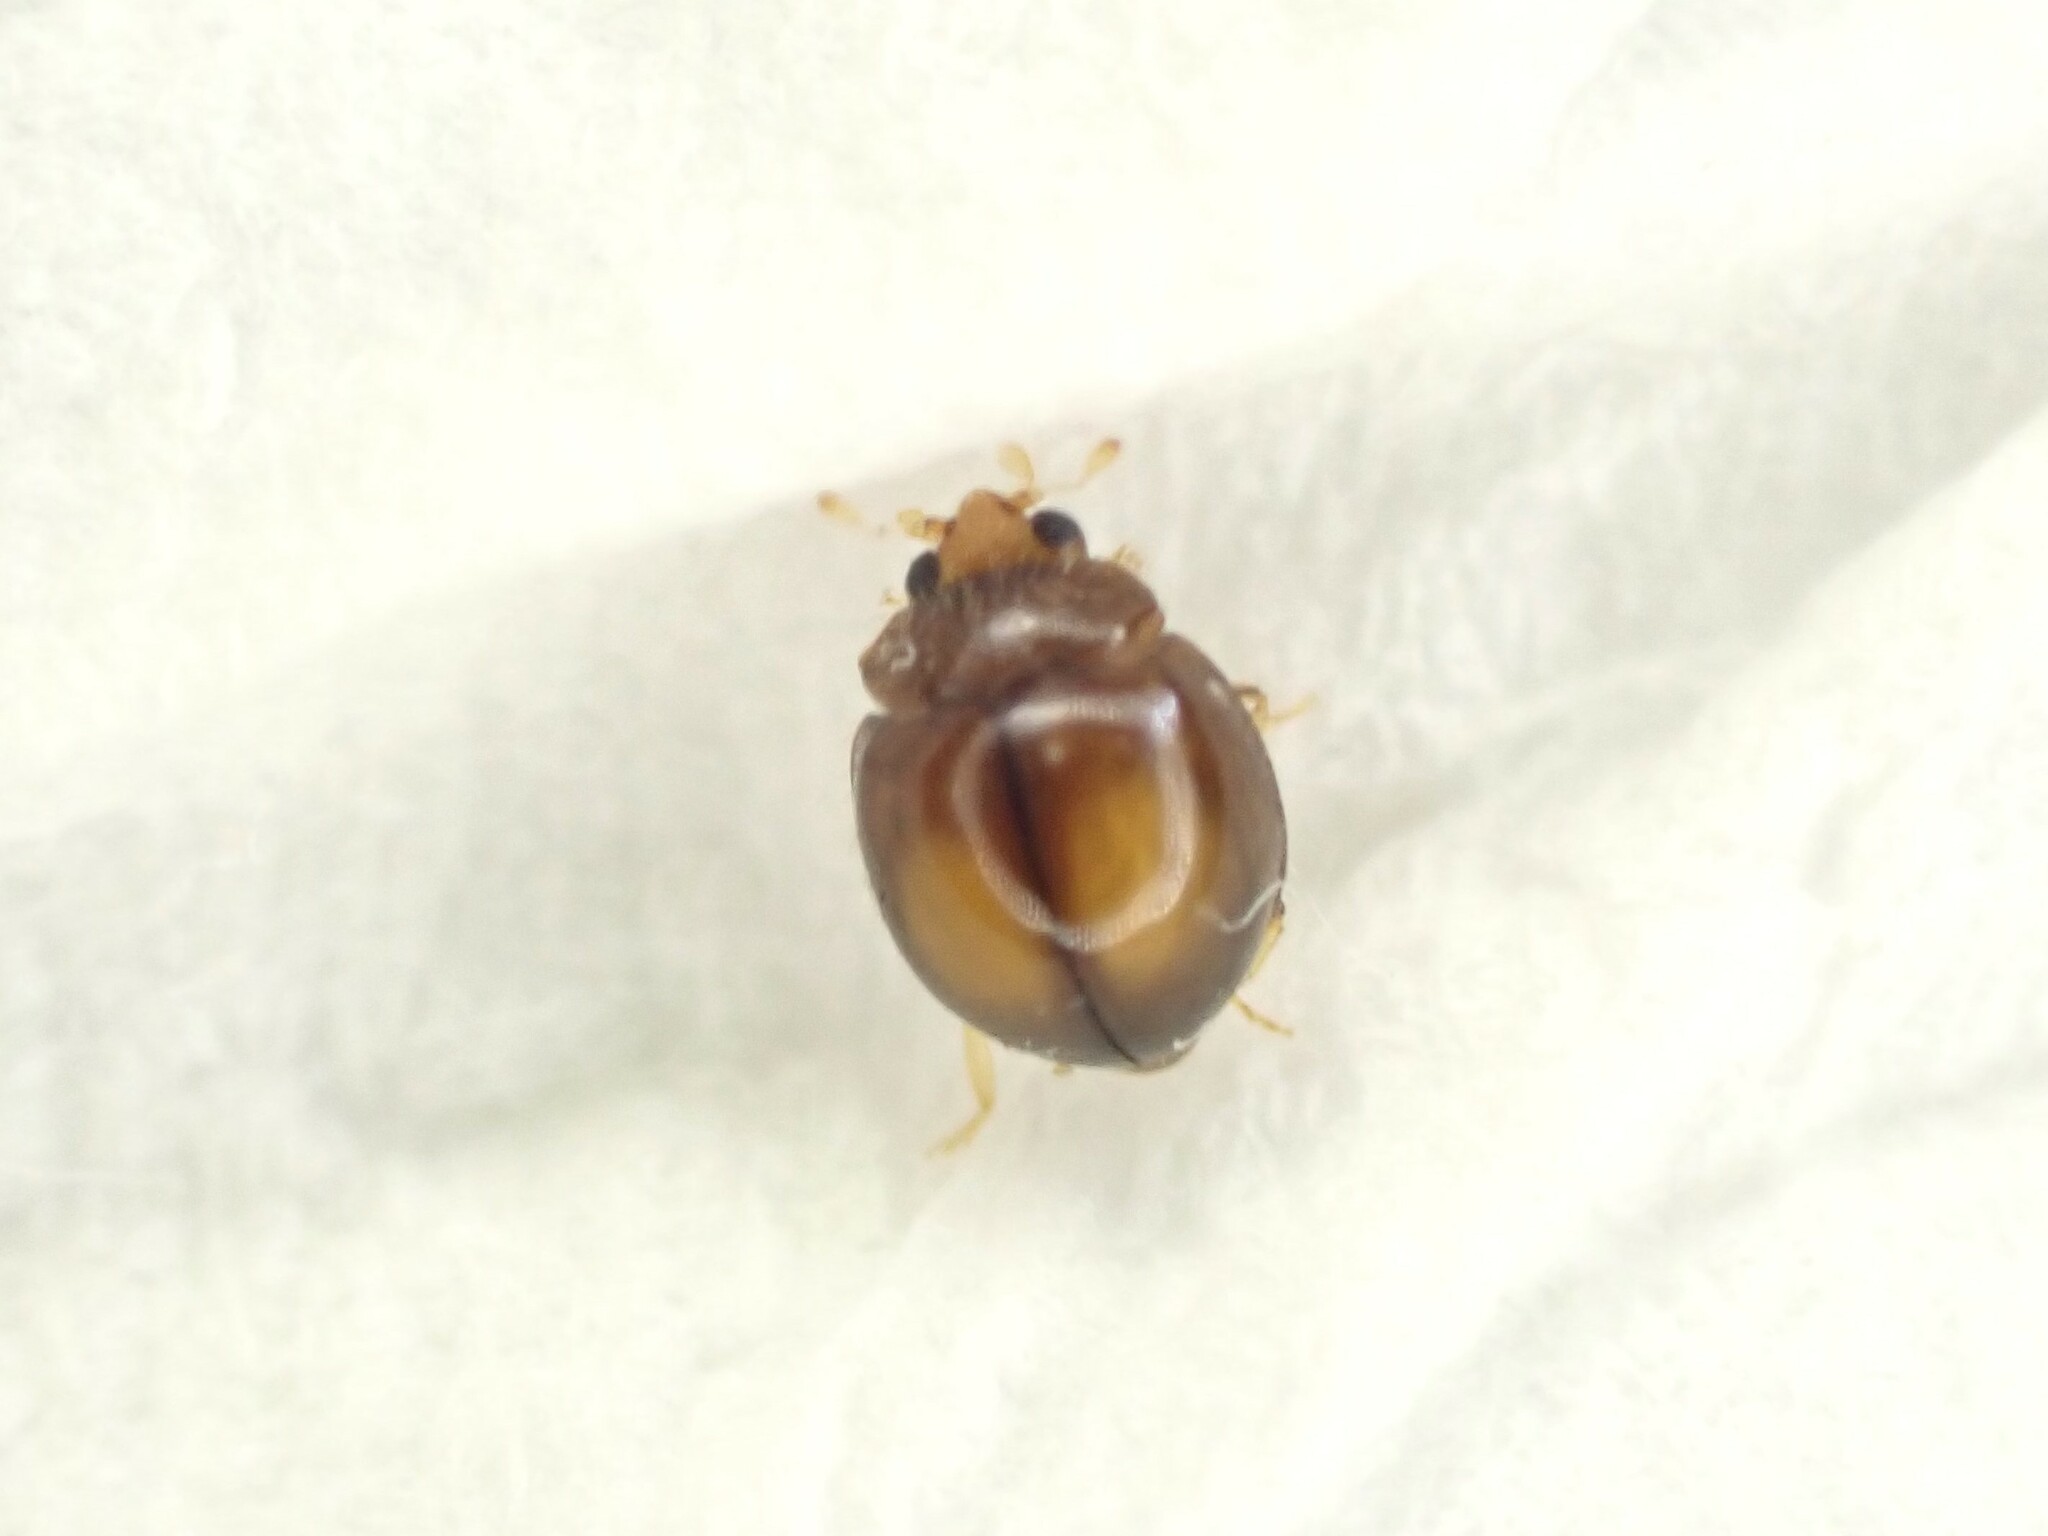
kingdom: Animalia
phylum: Arthropoda
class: Insecta
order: Coleoptera
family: Coccinellidae
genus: Serangium
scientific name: Serangium maculigerum
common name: Lady beetle
